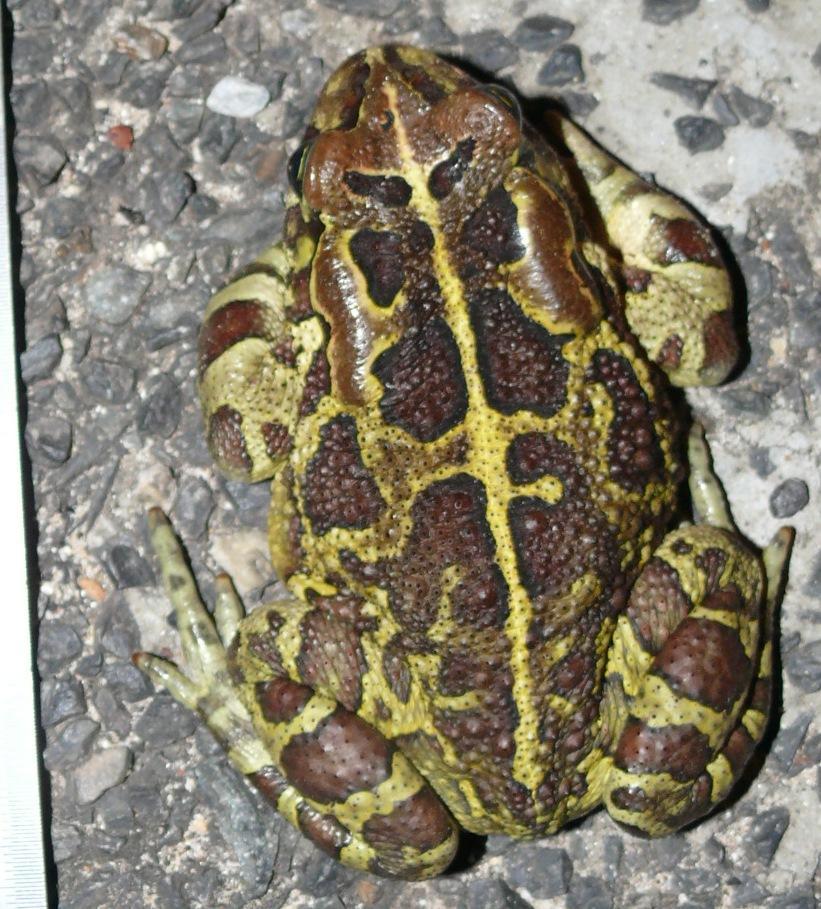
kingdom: Animalia
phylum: Chordata
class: Amphibia
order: Anura
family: Bufonidae
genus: Sclerophrys
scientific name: Sclerophrys pantherina
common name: Panther toad
